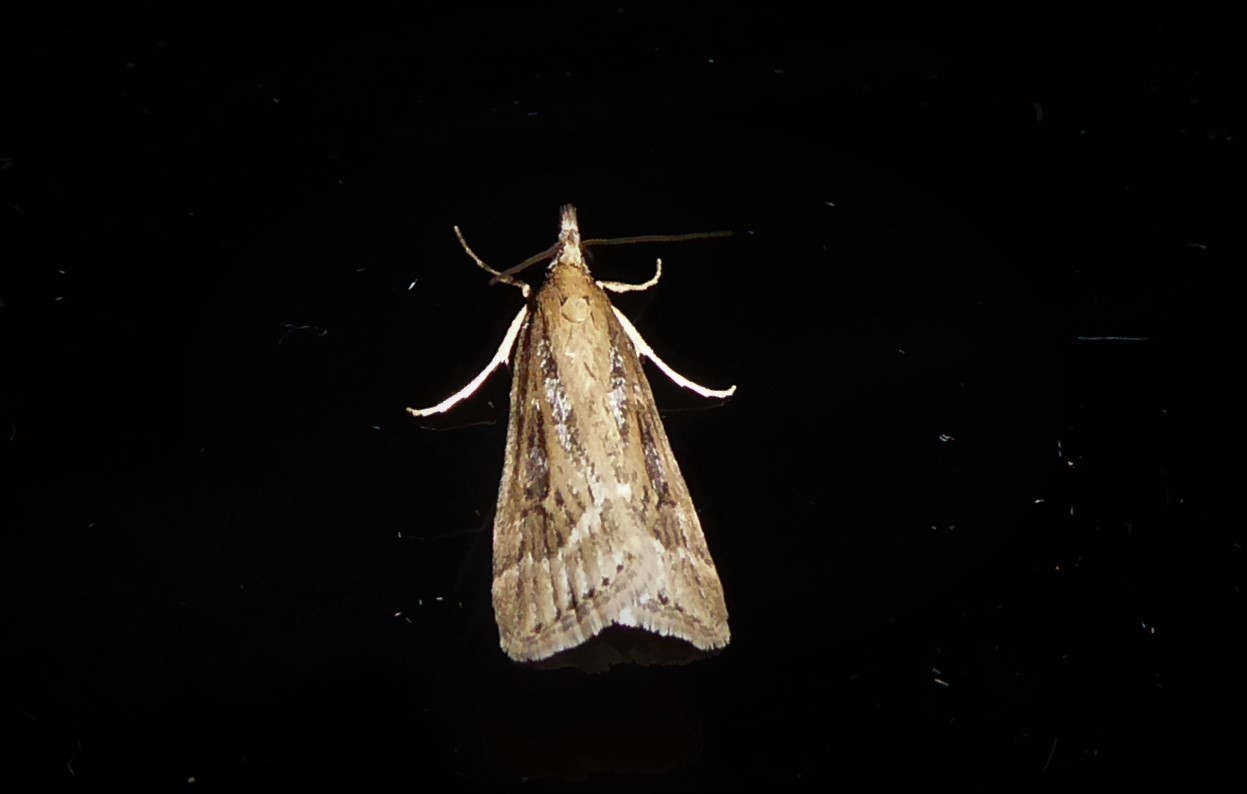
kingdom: Animalia
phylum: Arthropoda
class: Insecta
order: Lepidoptera
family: Crambidae
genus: Eudonia
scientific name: Eudonia octophora
